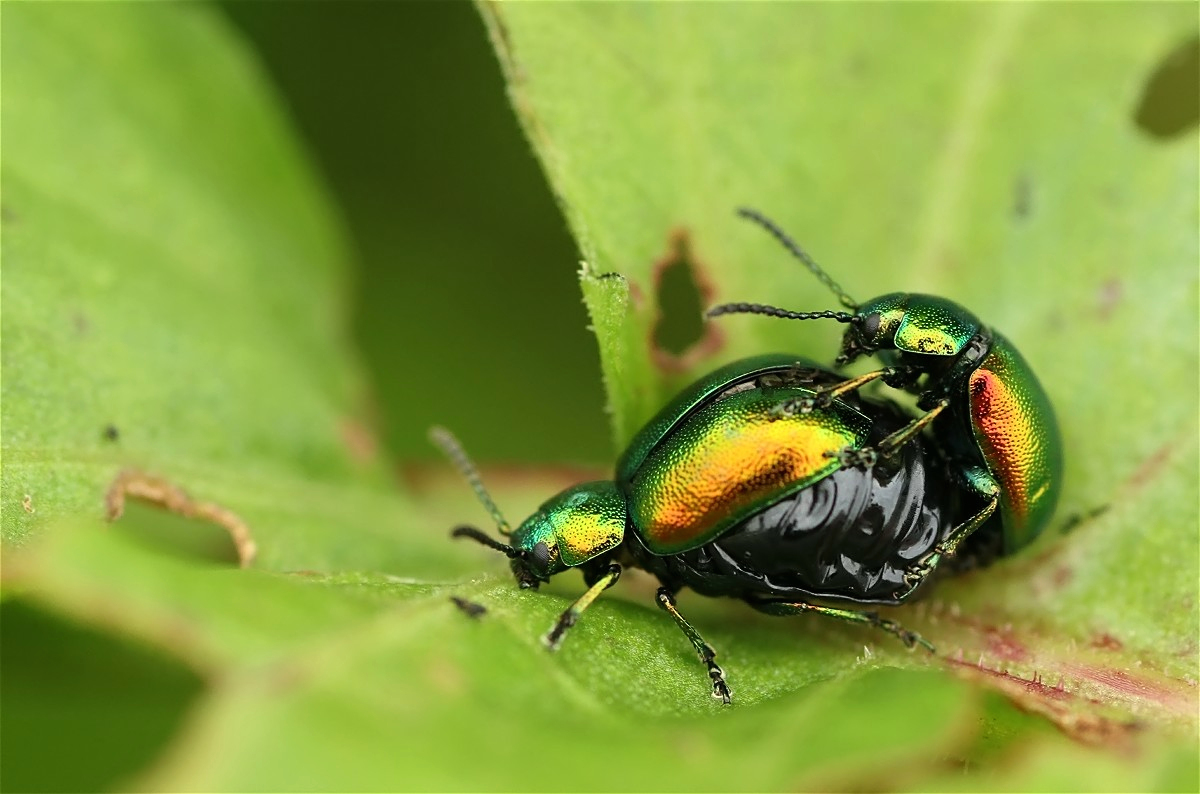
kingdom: Animalia
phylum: Arthropoda
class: Insecta
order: Coleoptera
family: Chrysomelidae
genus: Gastrophysa
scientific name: Gastrophysa viridula
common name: Green dock beetle
